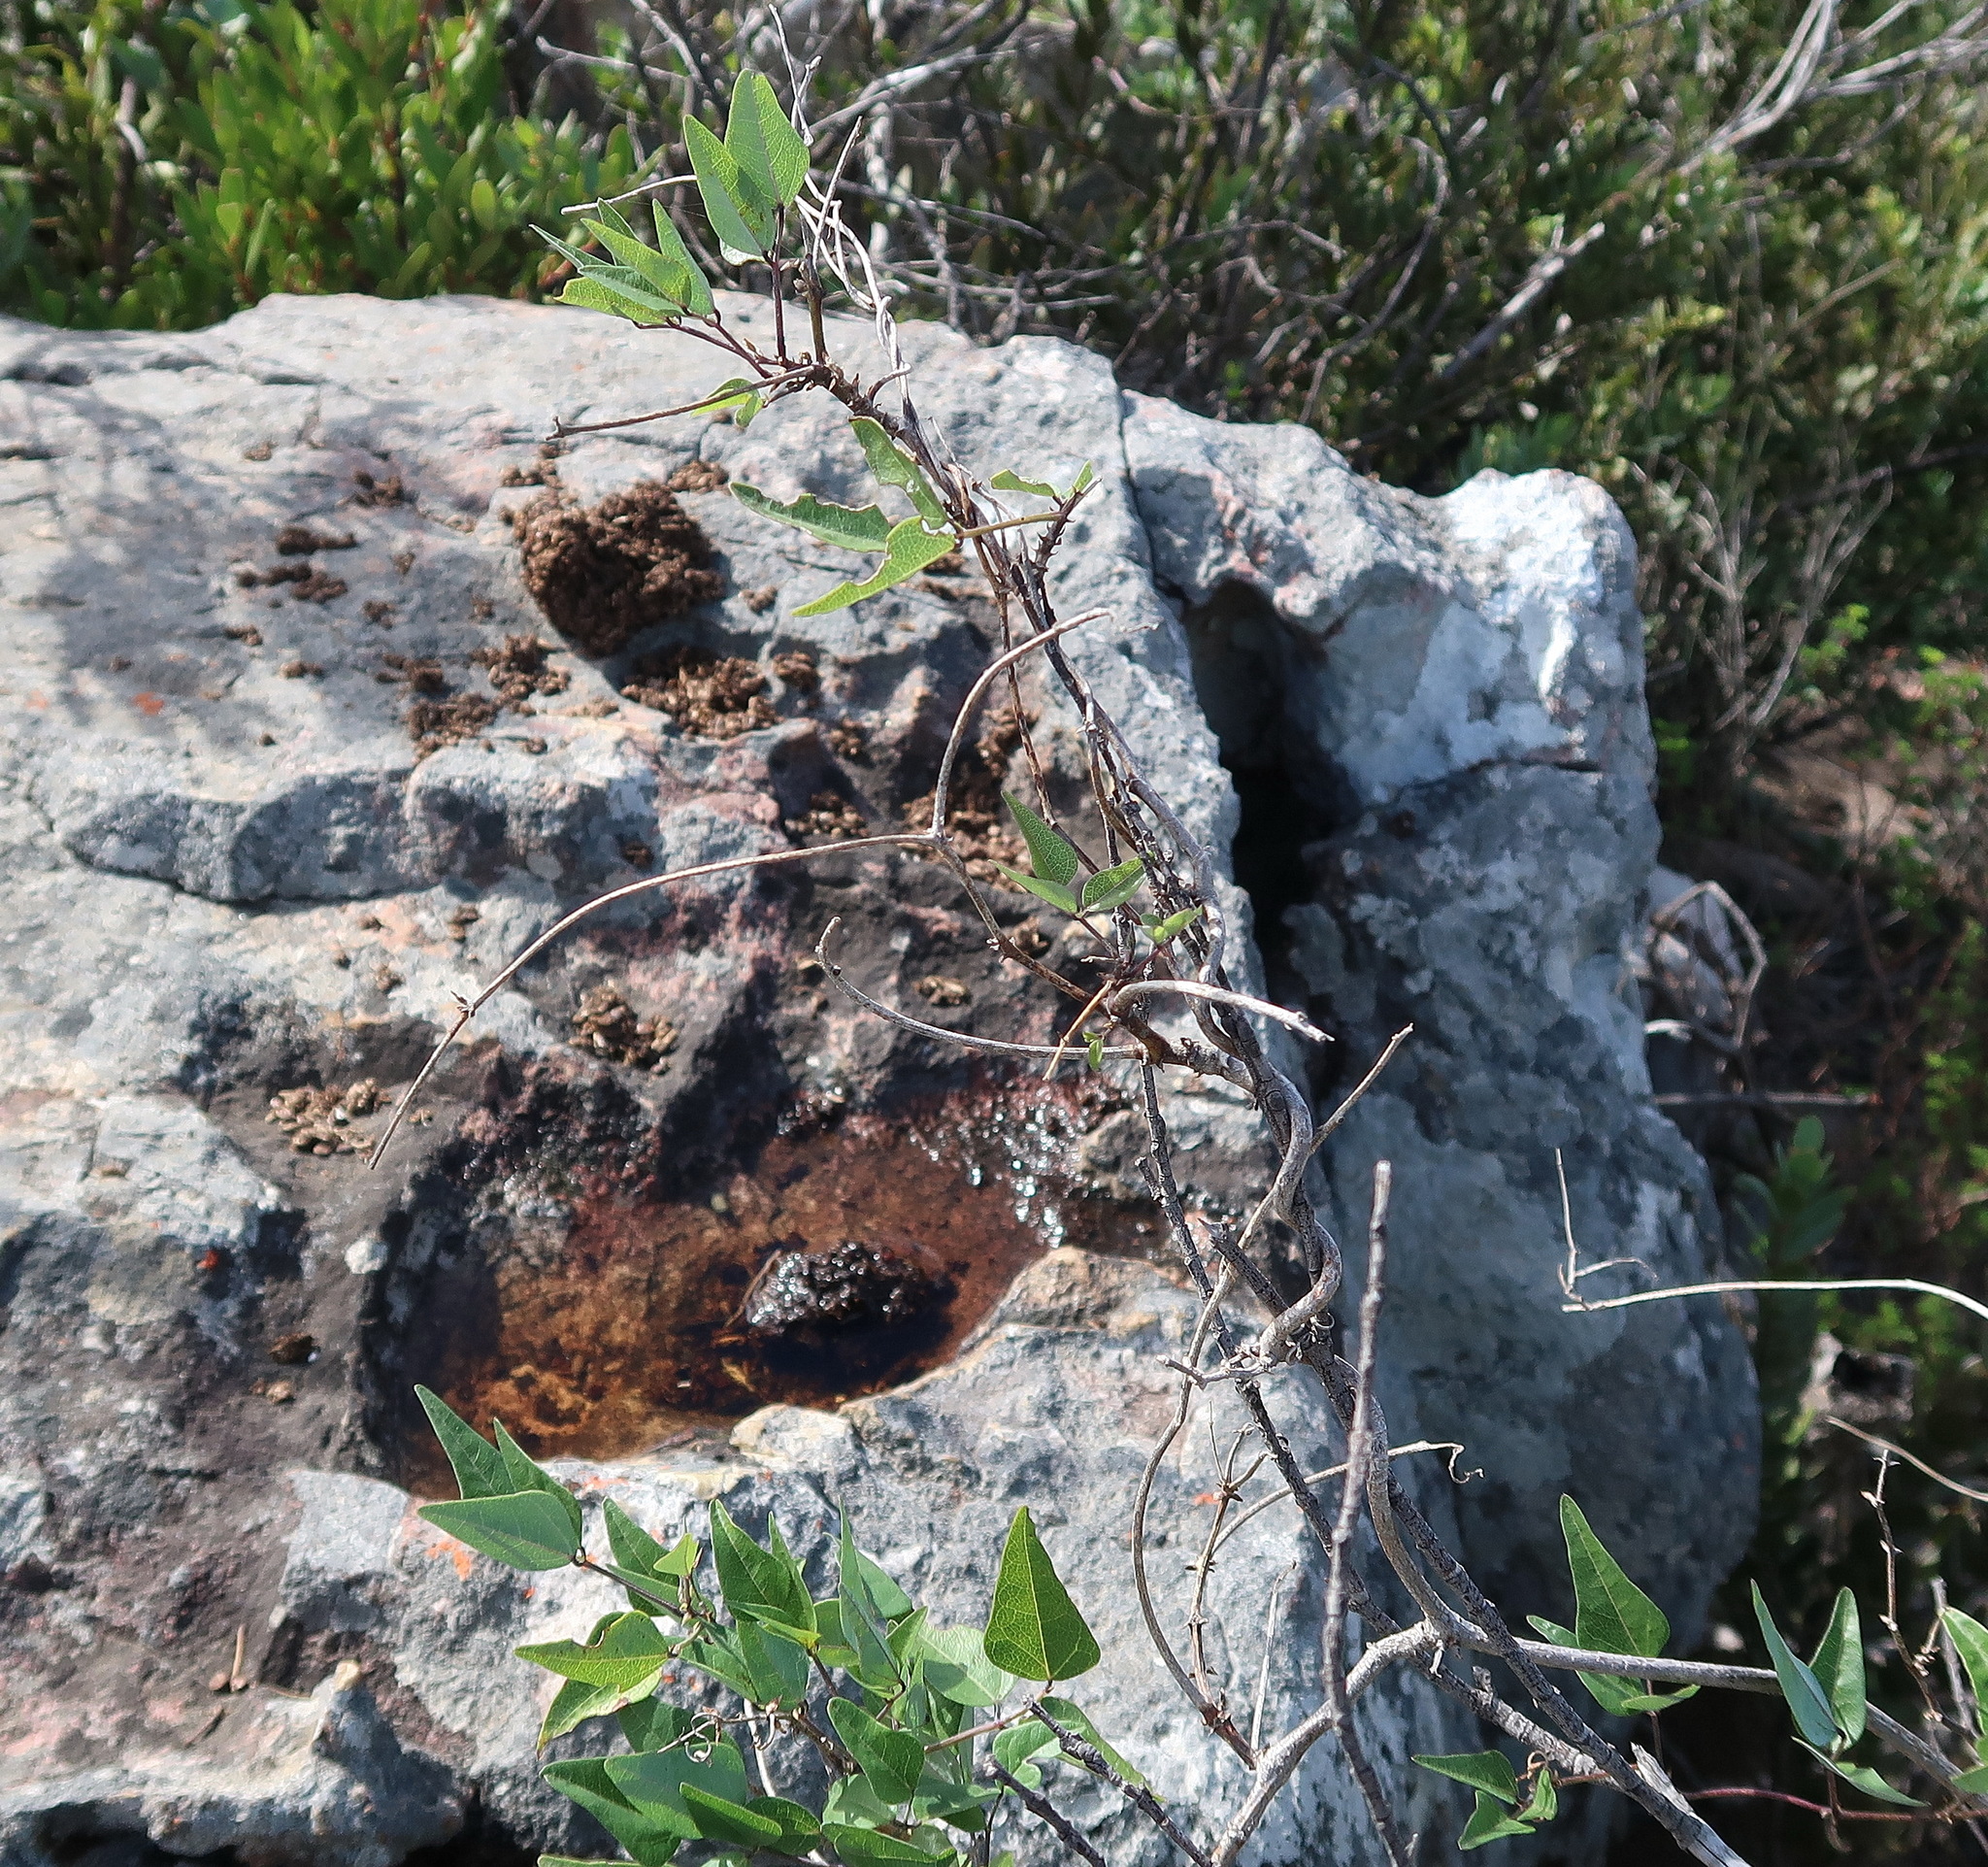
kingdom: Plantae
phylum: Tracheophyta
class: Magnoliopsida
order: Fabales
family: Fabaceae
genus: Dipogon
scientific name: Dipogon lignosus
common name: Okie bean
